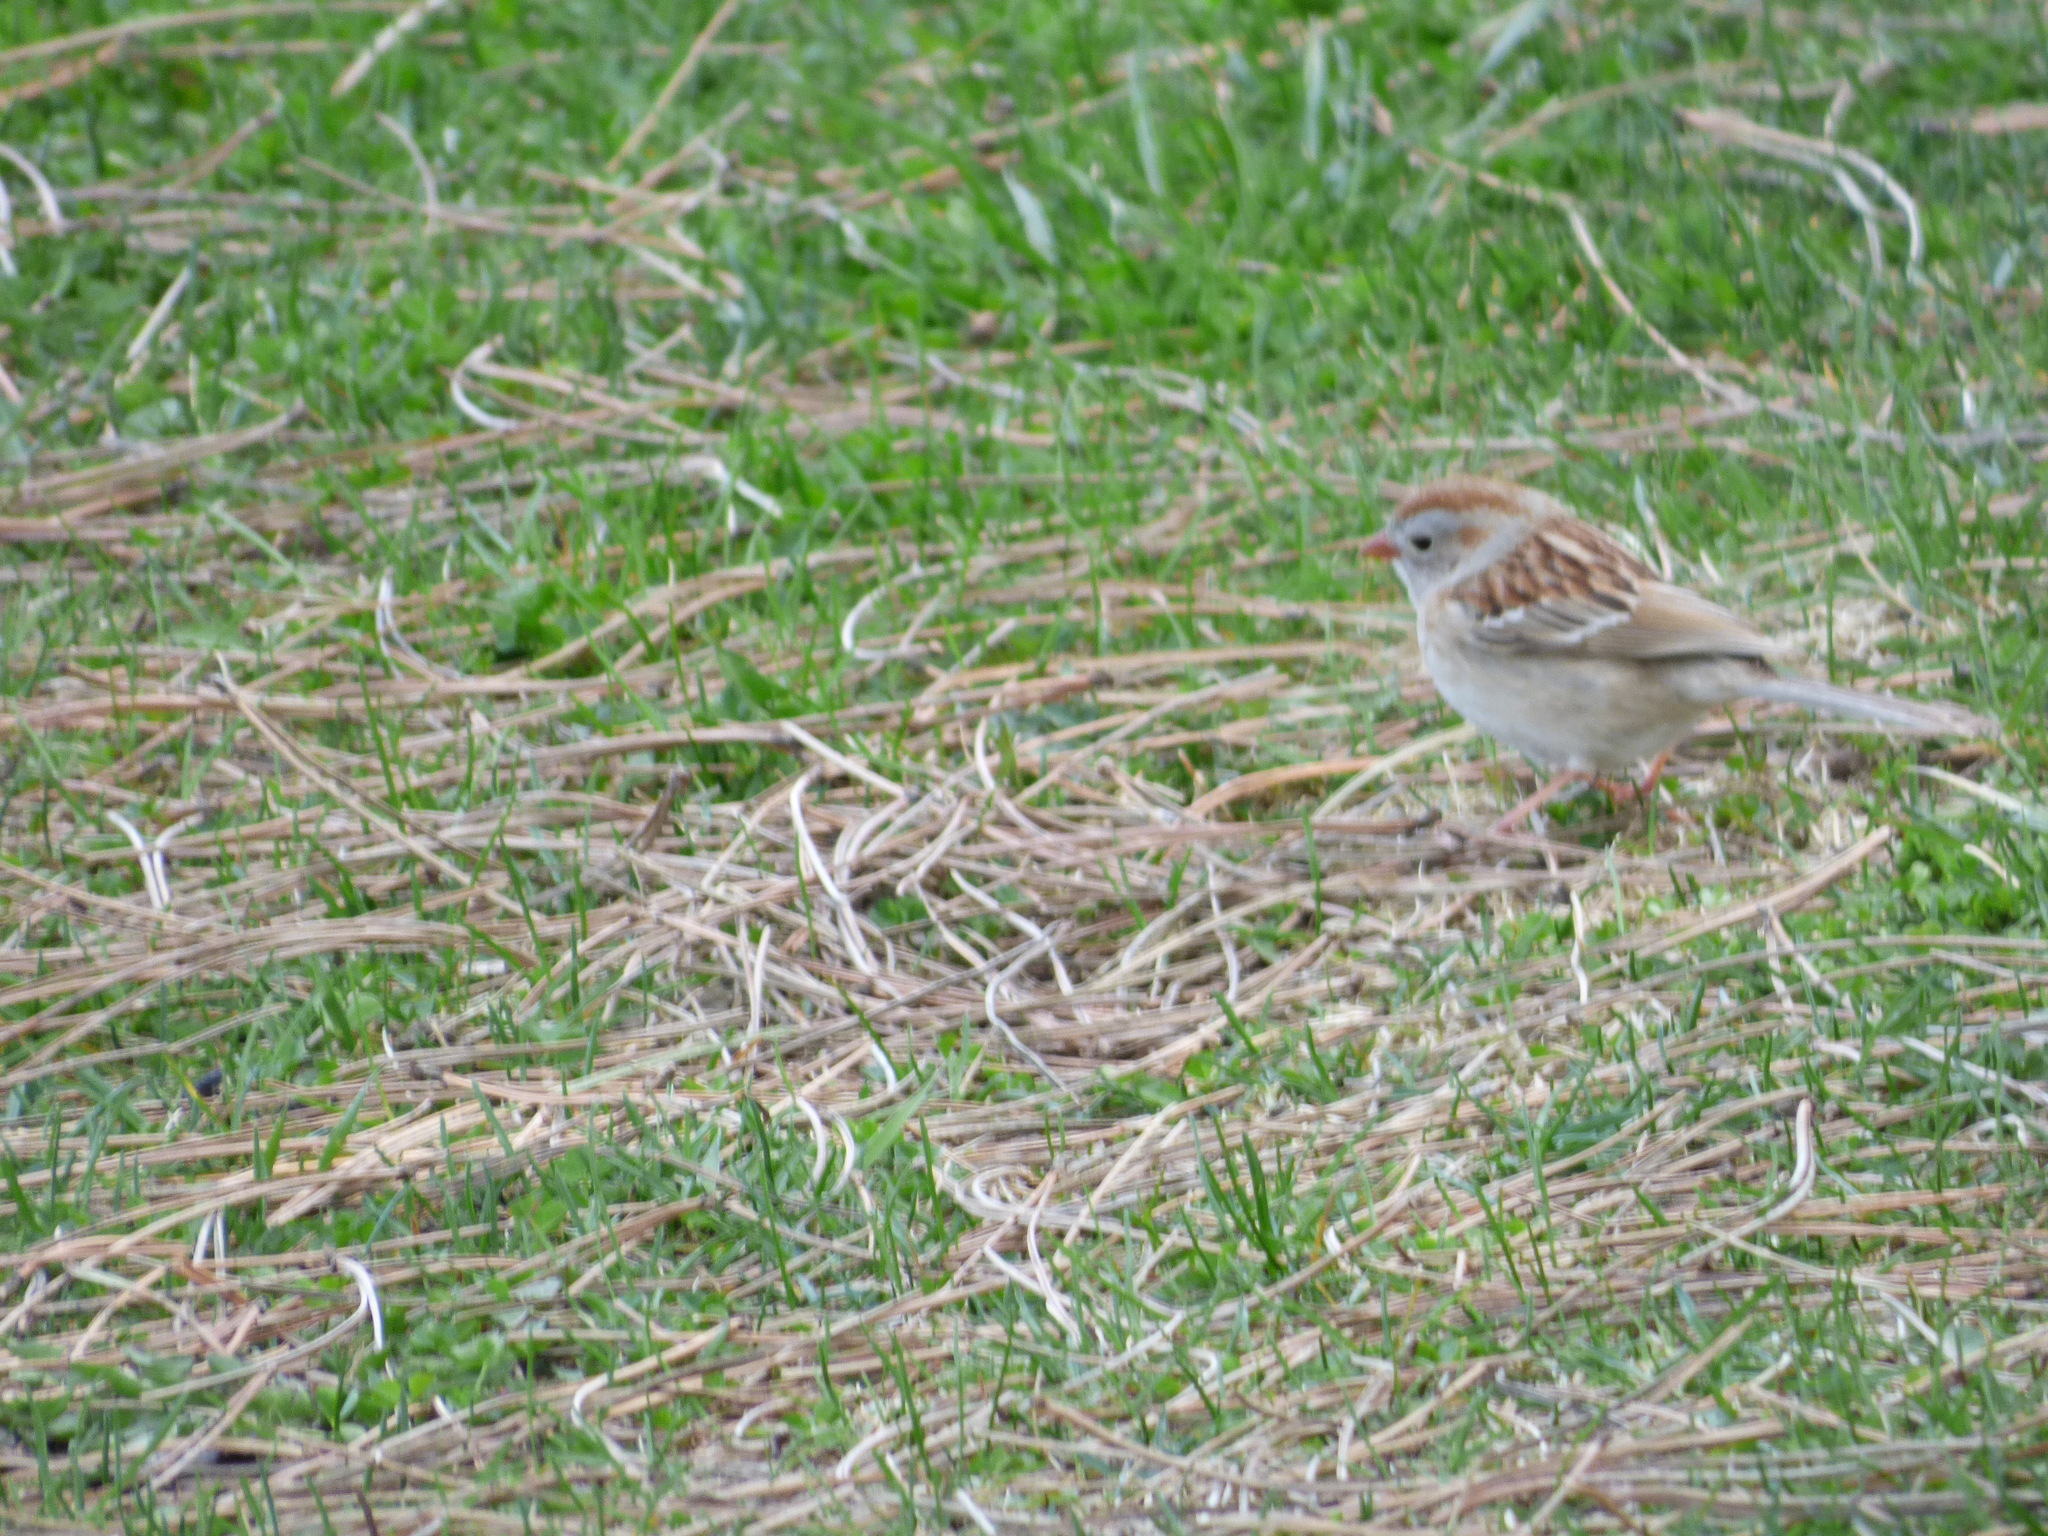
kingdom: Animalia
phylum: Chordata
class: Aves
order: Passeriformes
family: Passerellidae
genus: Spizella
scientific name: Spizella pusilla
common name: Field sparrow
